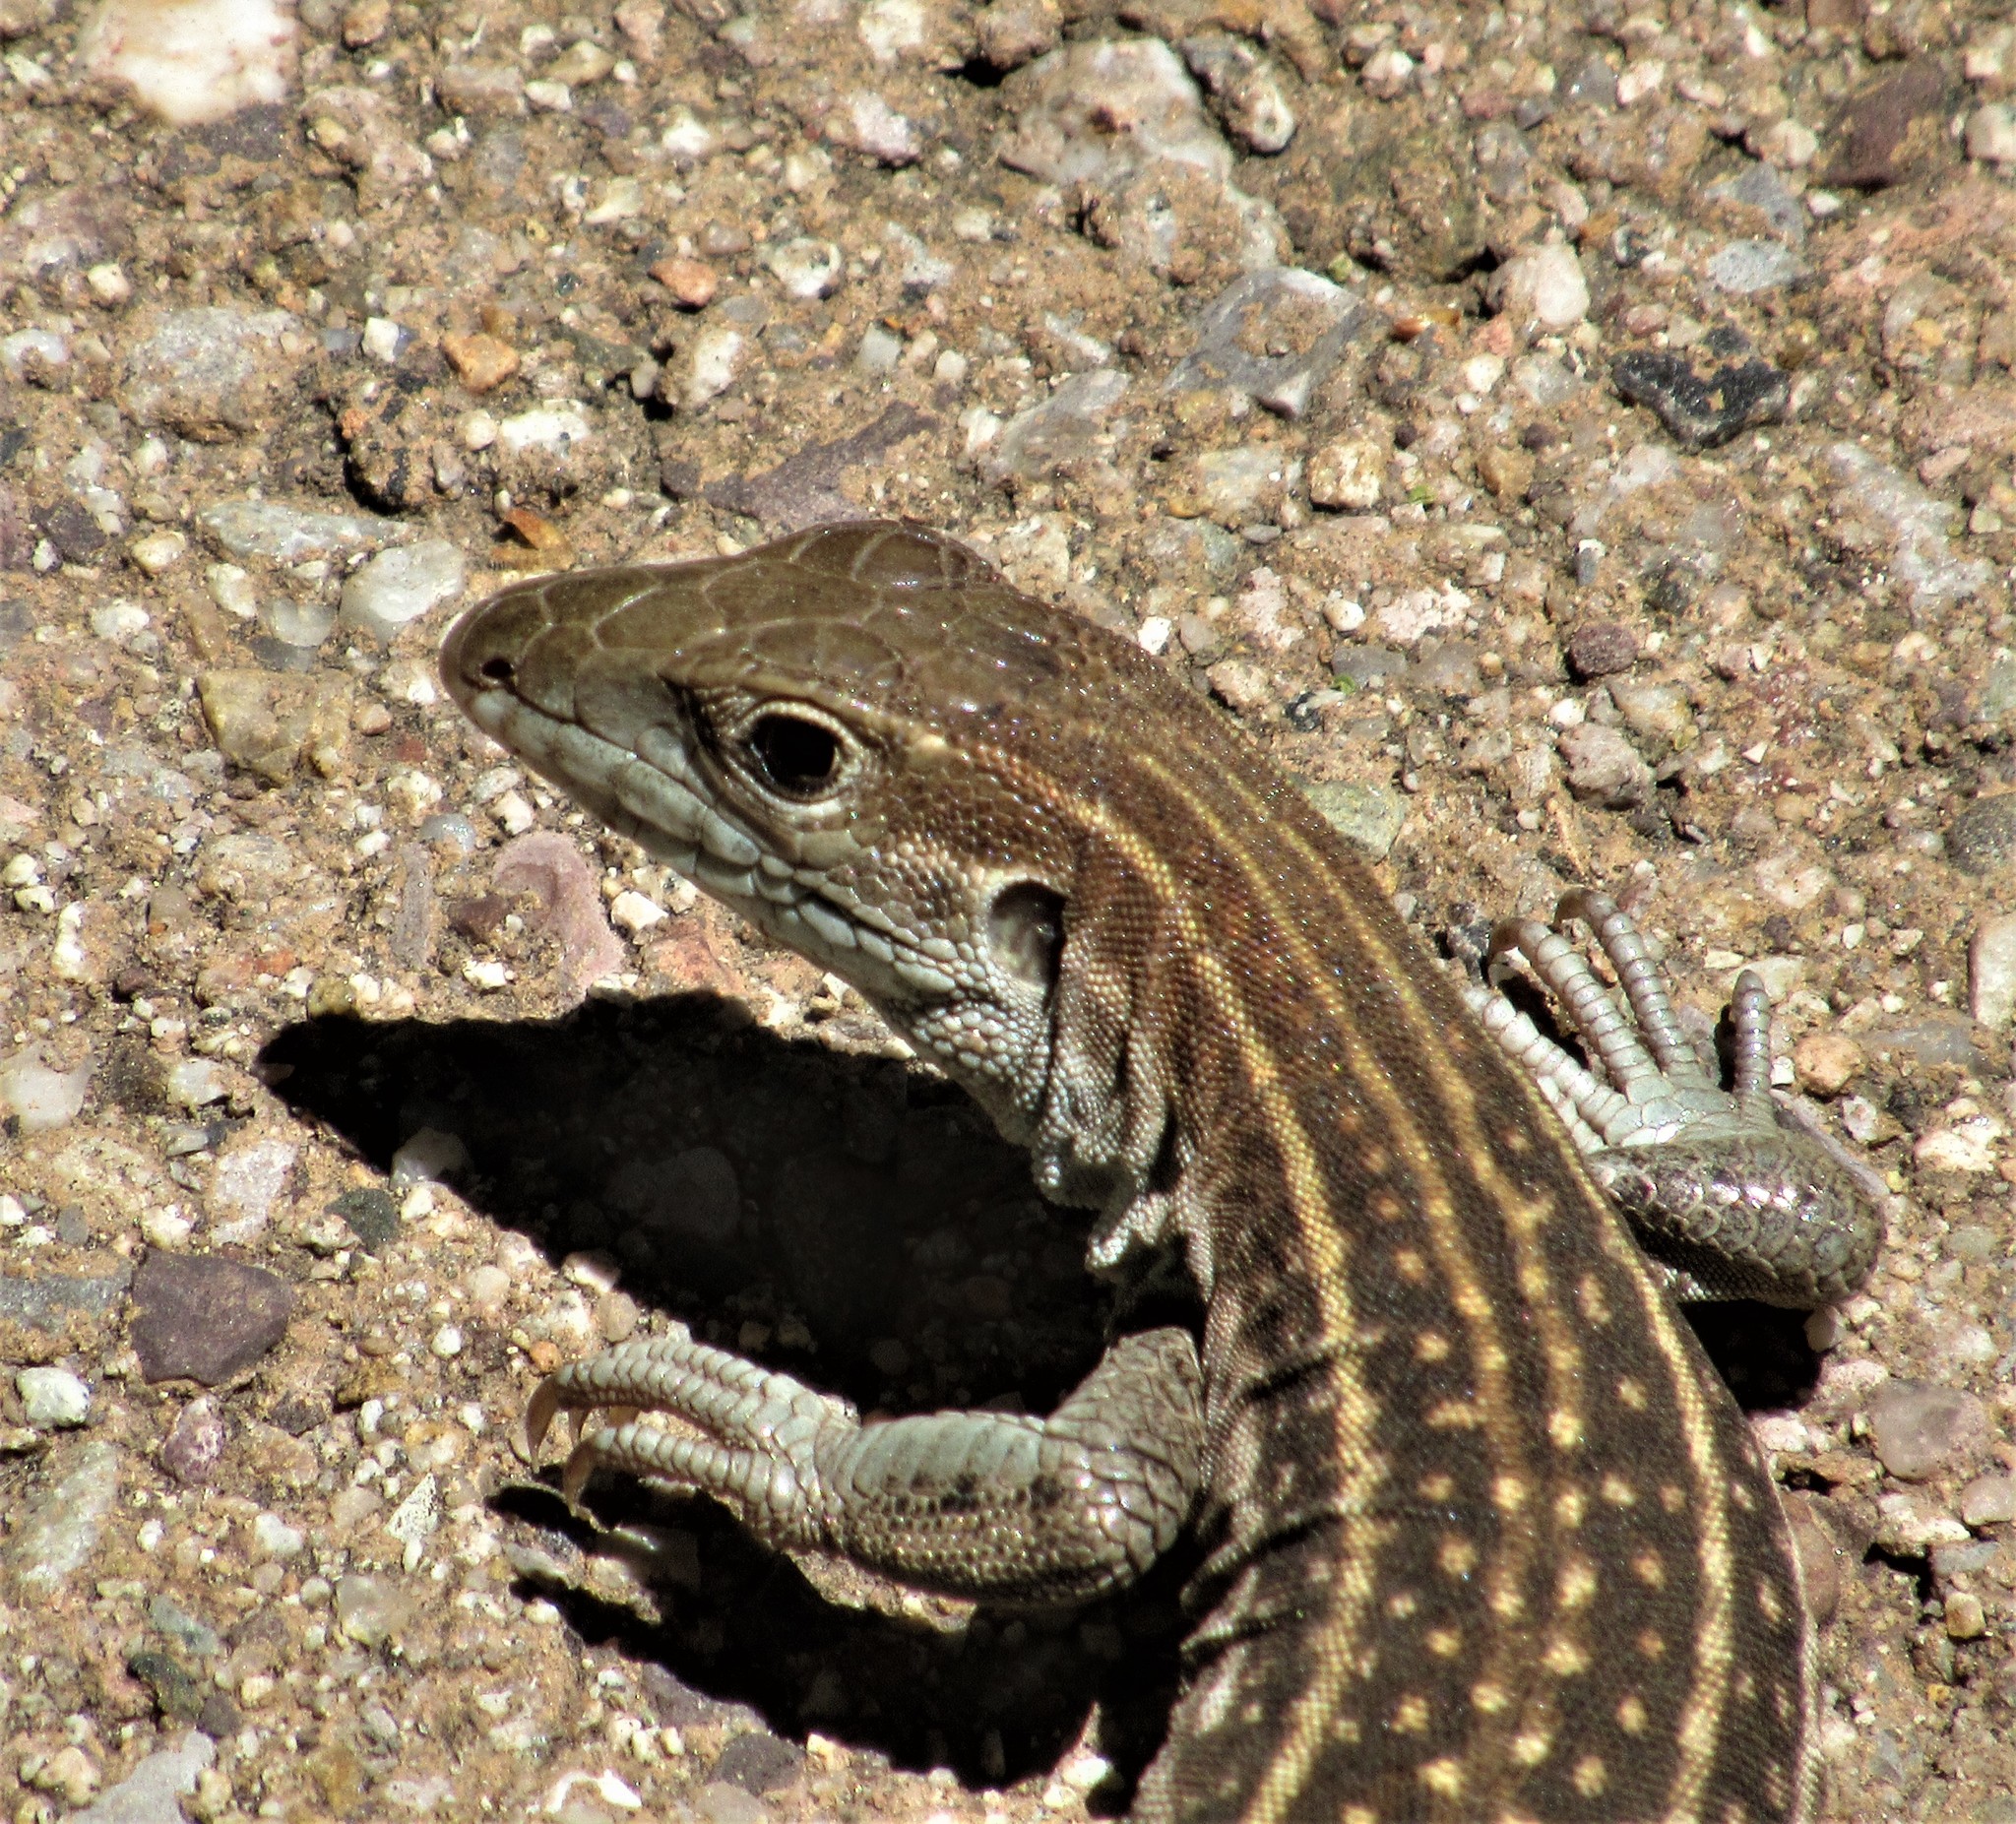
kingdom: Animalia
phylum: Chordata
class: Squamata
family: Teiidae
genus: Aspidoscelis
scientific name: Aspidoscelis stictogrammus
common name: Giant spotted whiptail
